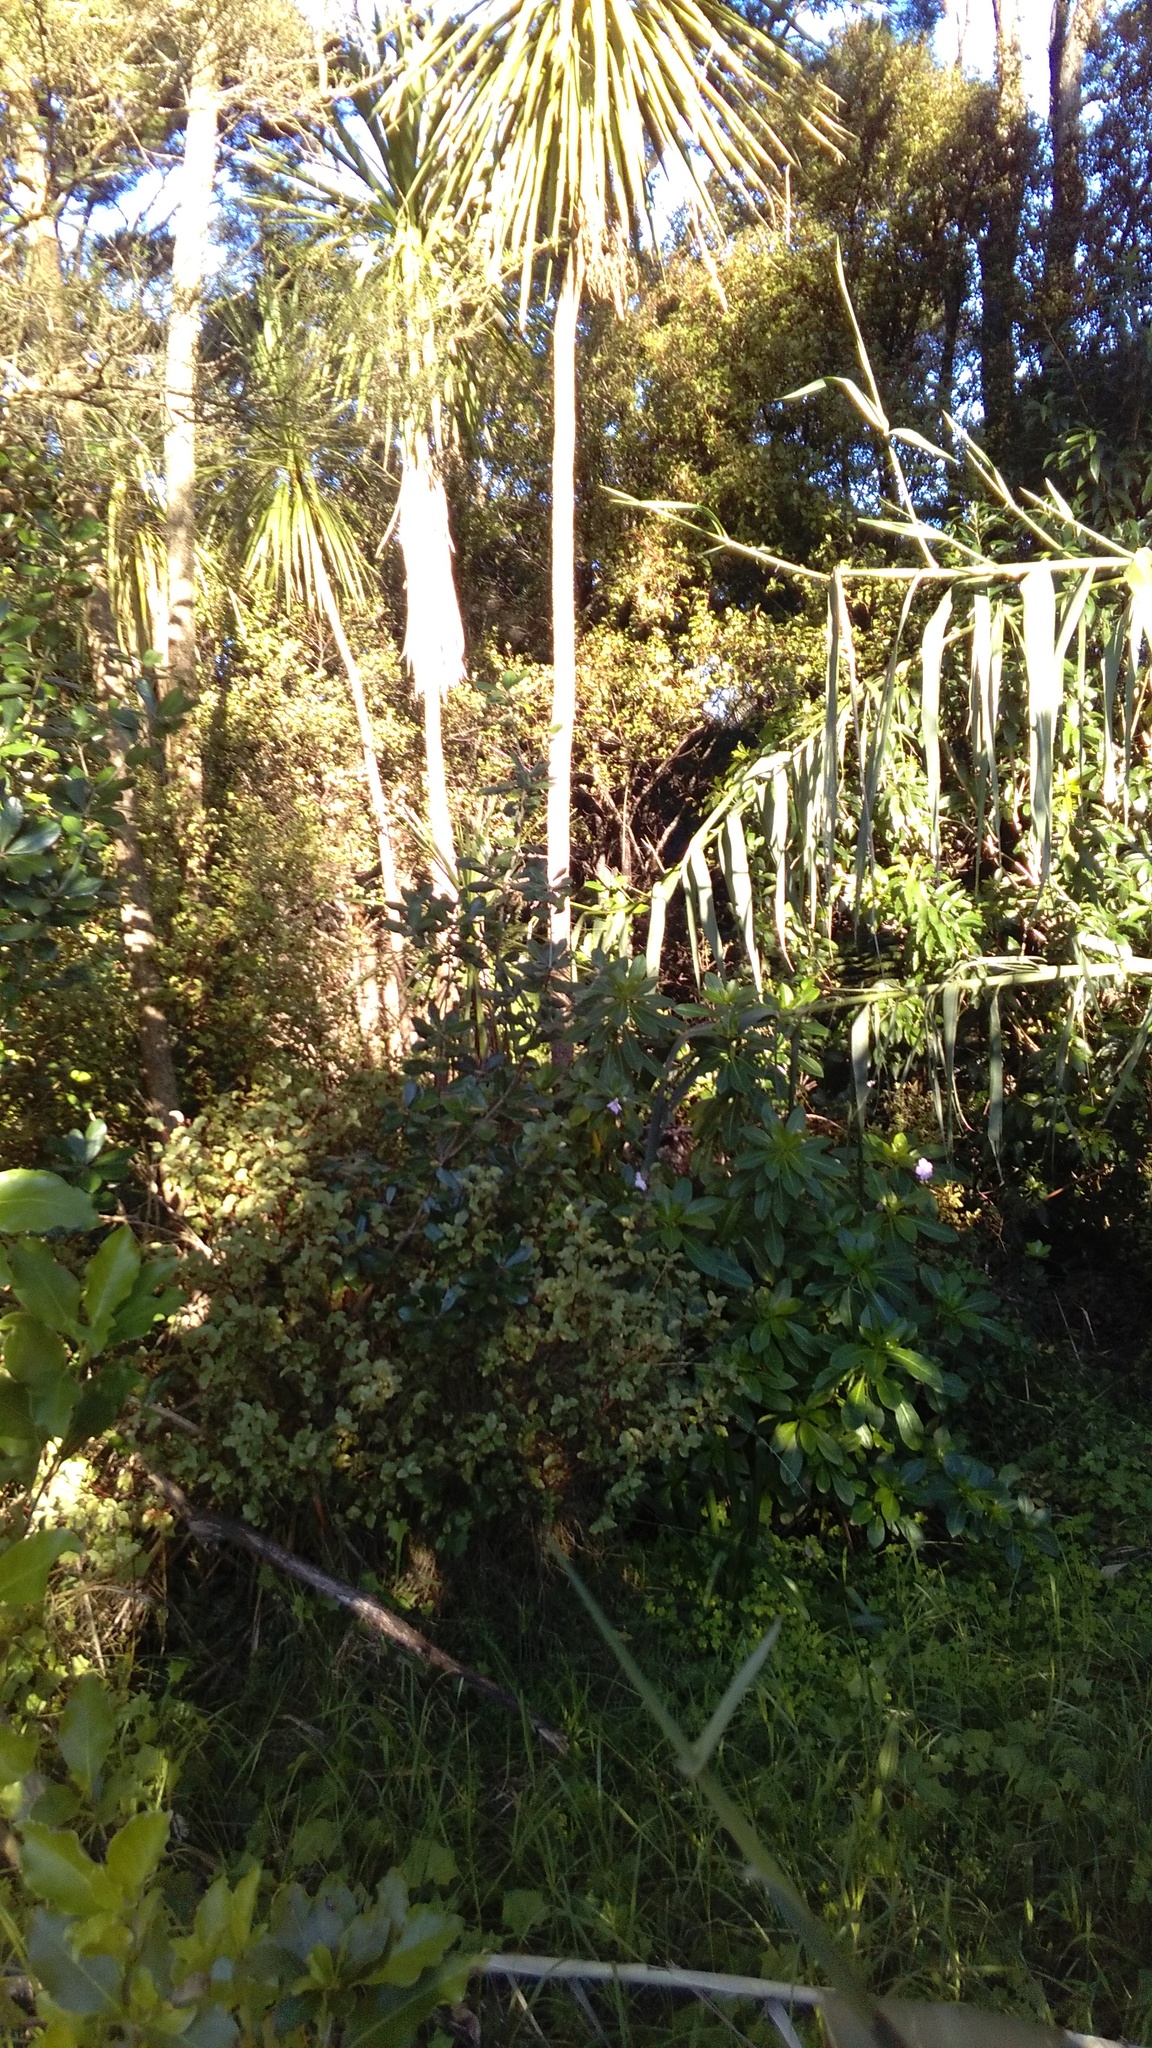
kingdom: Plantae
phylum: Tracheophyta
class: Liliopsida
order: Poales
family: Poaceae
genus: Arundo
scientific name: Arundo donax
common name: Giant reed
